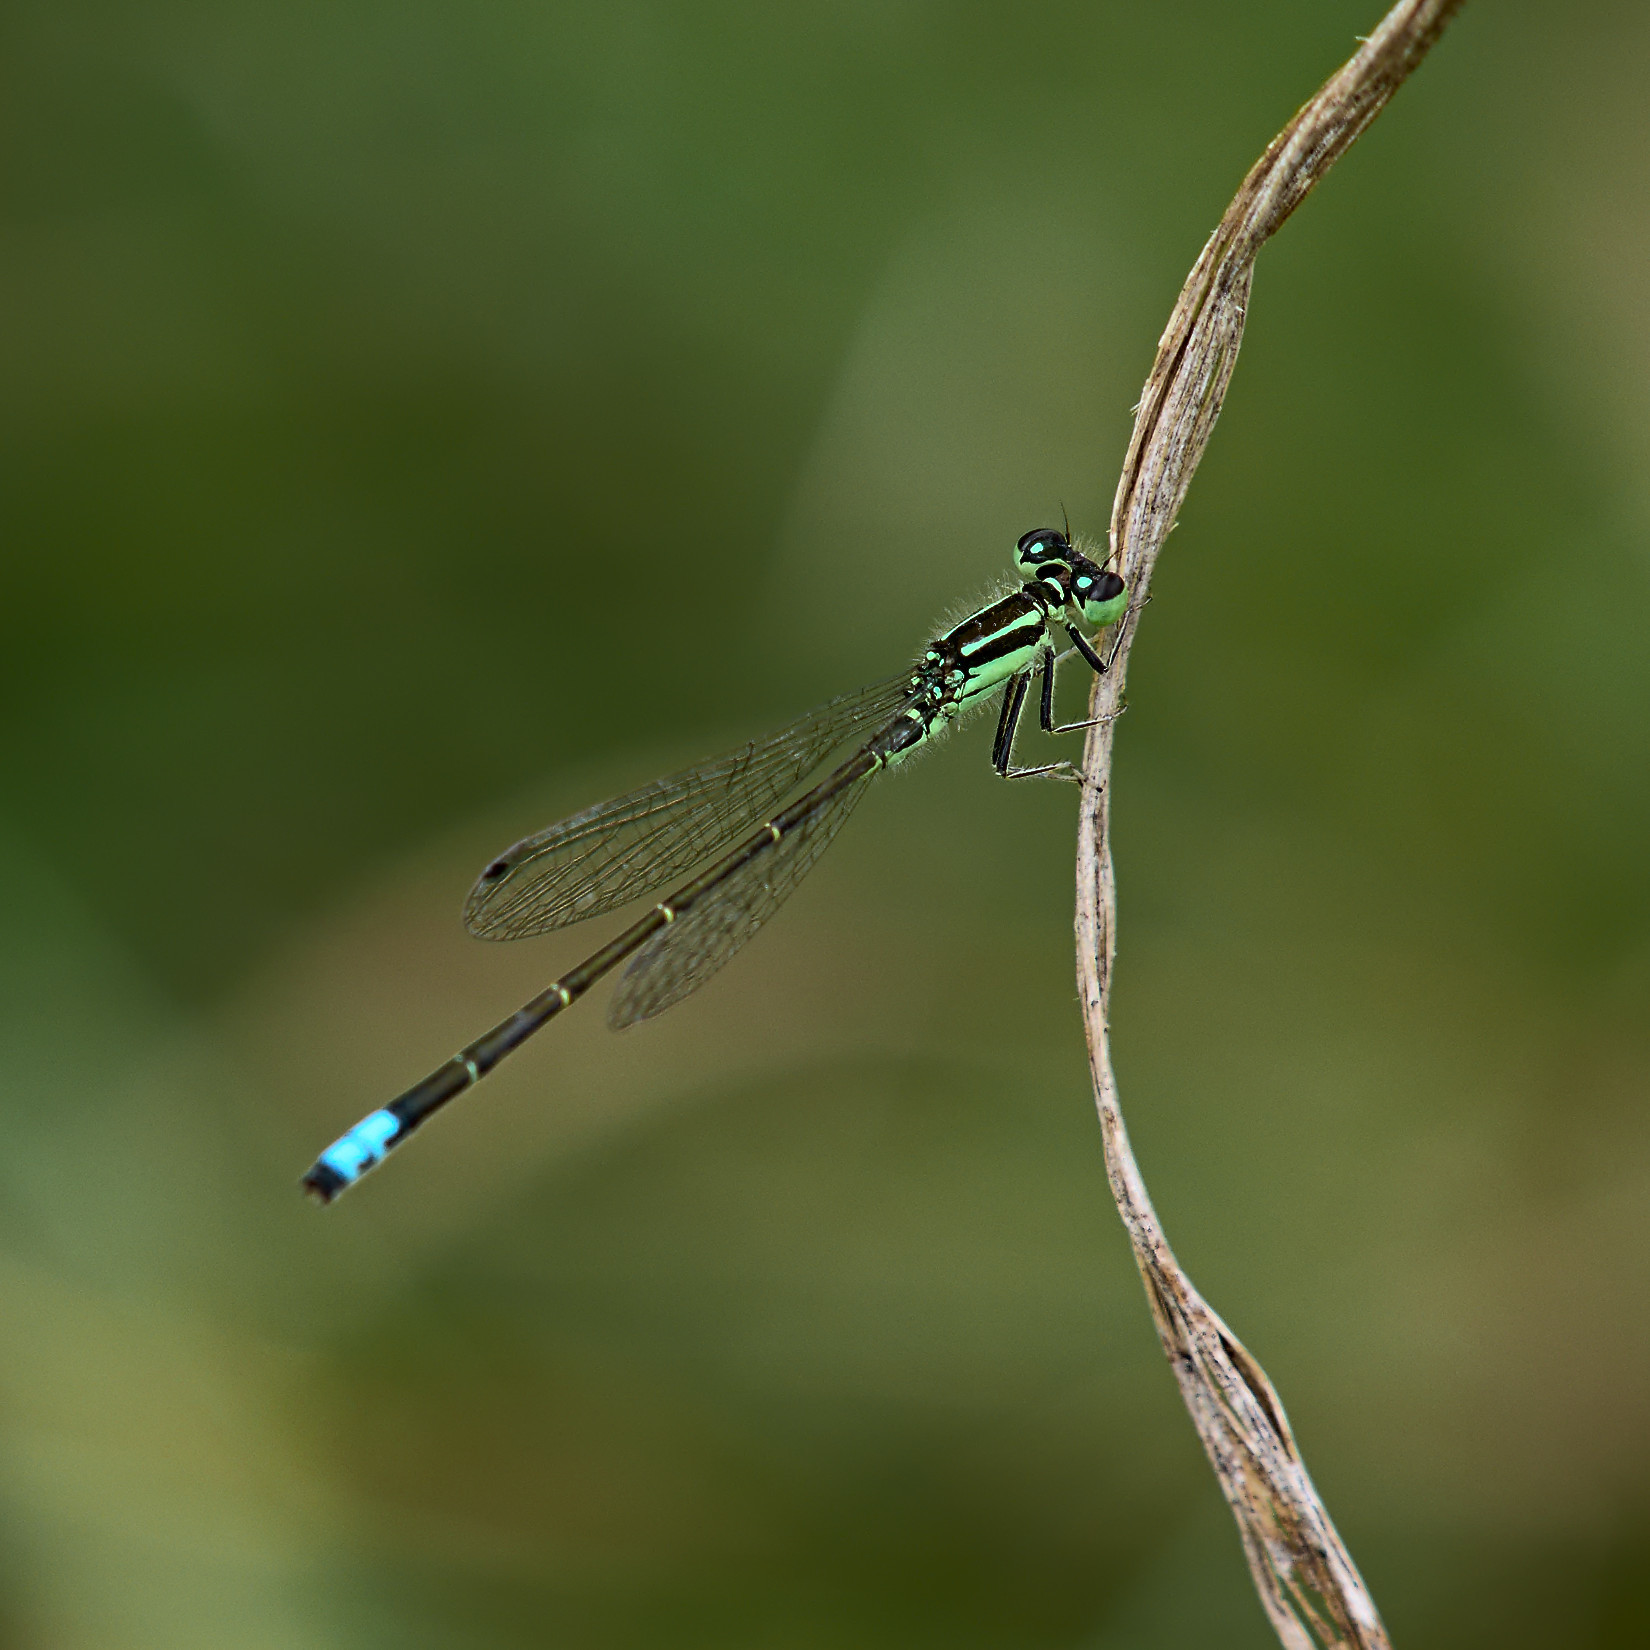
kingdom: Animalia
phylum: Arthropoda
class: Insecta
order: Odonata
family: Coenagrionidae
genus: Ischnura
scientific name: Ischnura verticalis
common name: Eastern forktail
